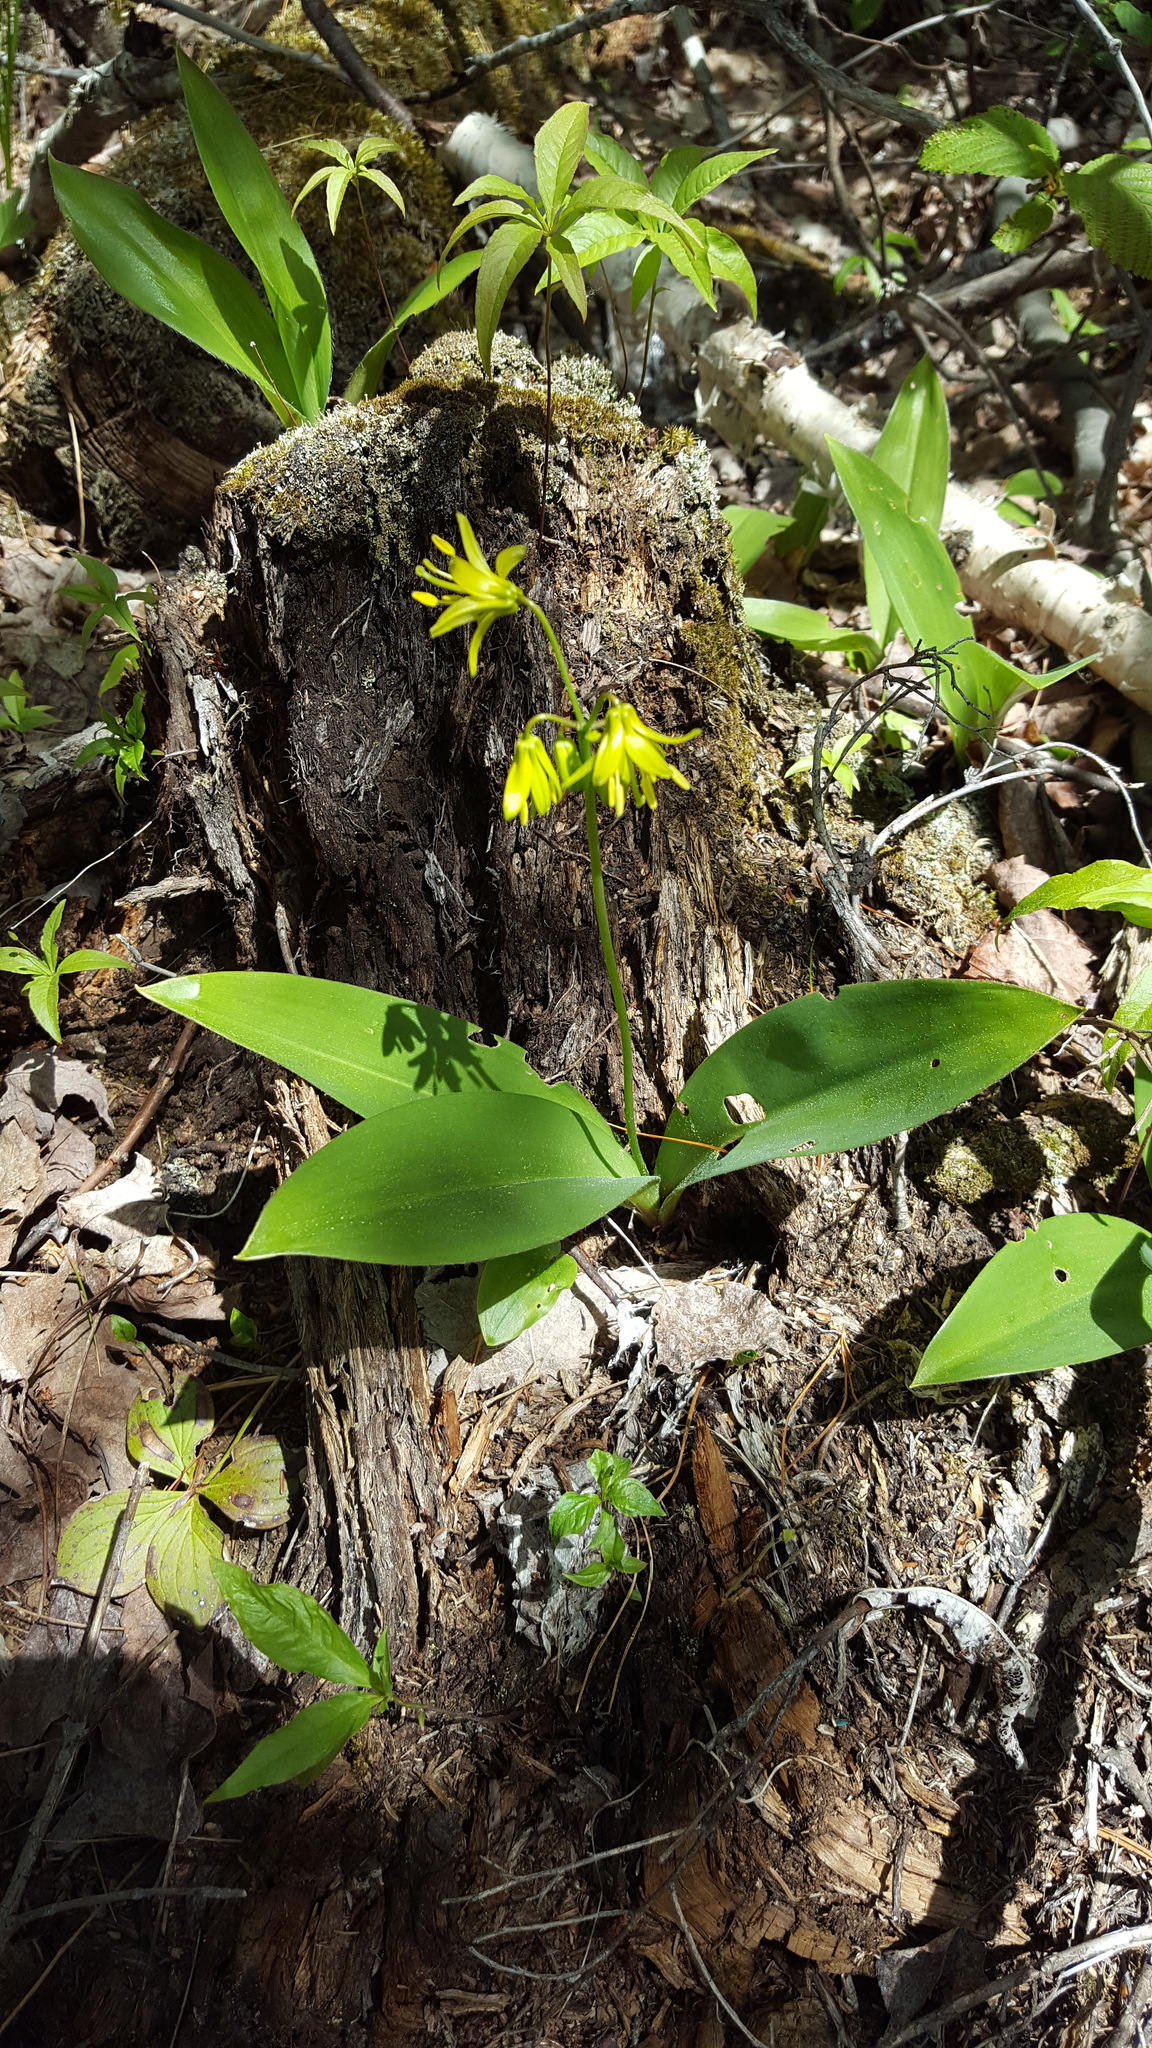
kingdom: Plantae
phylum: Tracheophyta
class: Liliopsida
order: Liliales
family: Liliaceae
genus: Clintonia
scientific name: Clintonia borealis
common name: Yellow clintonia
